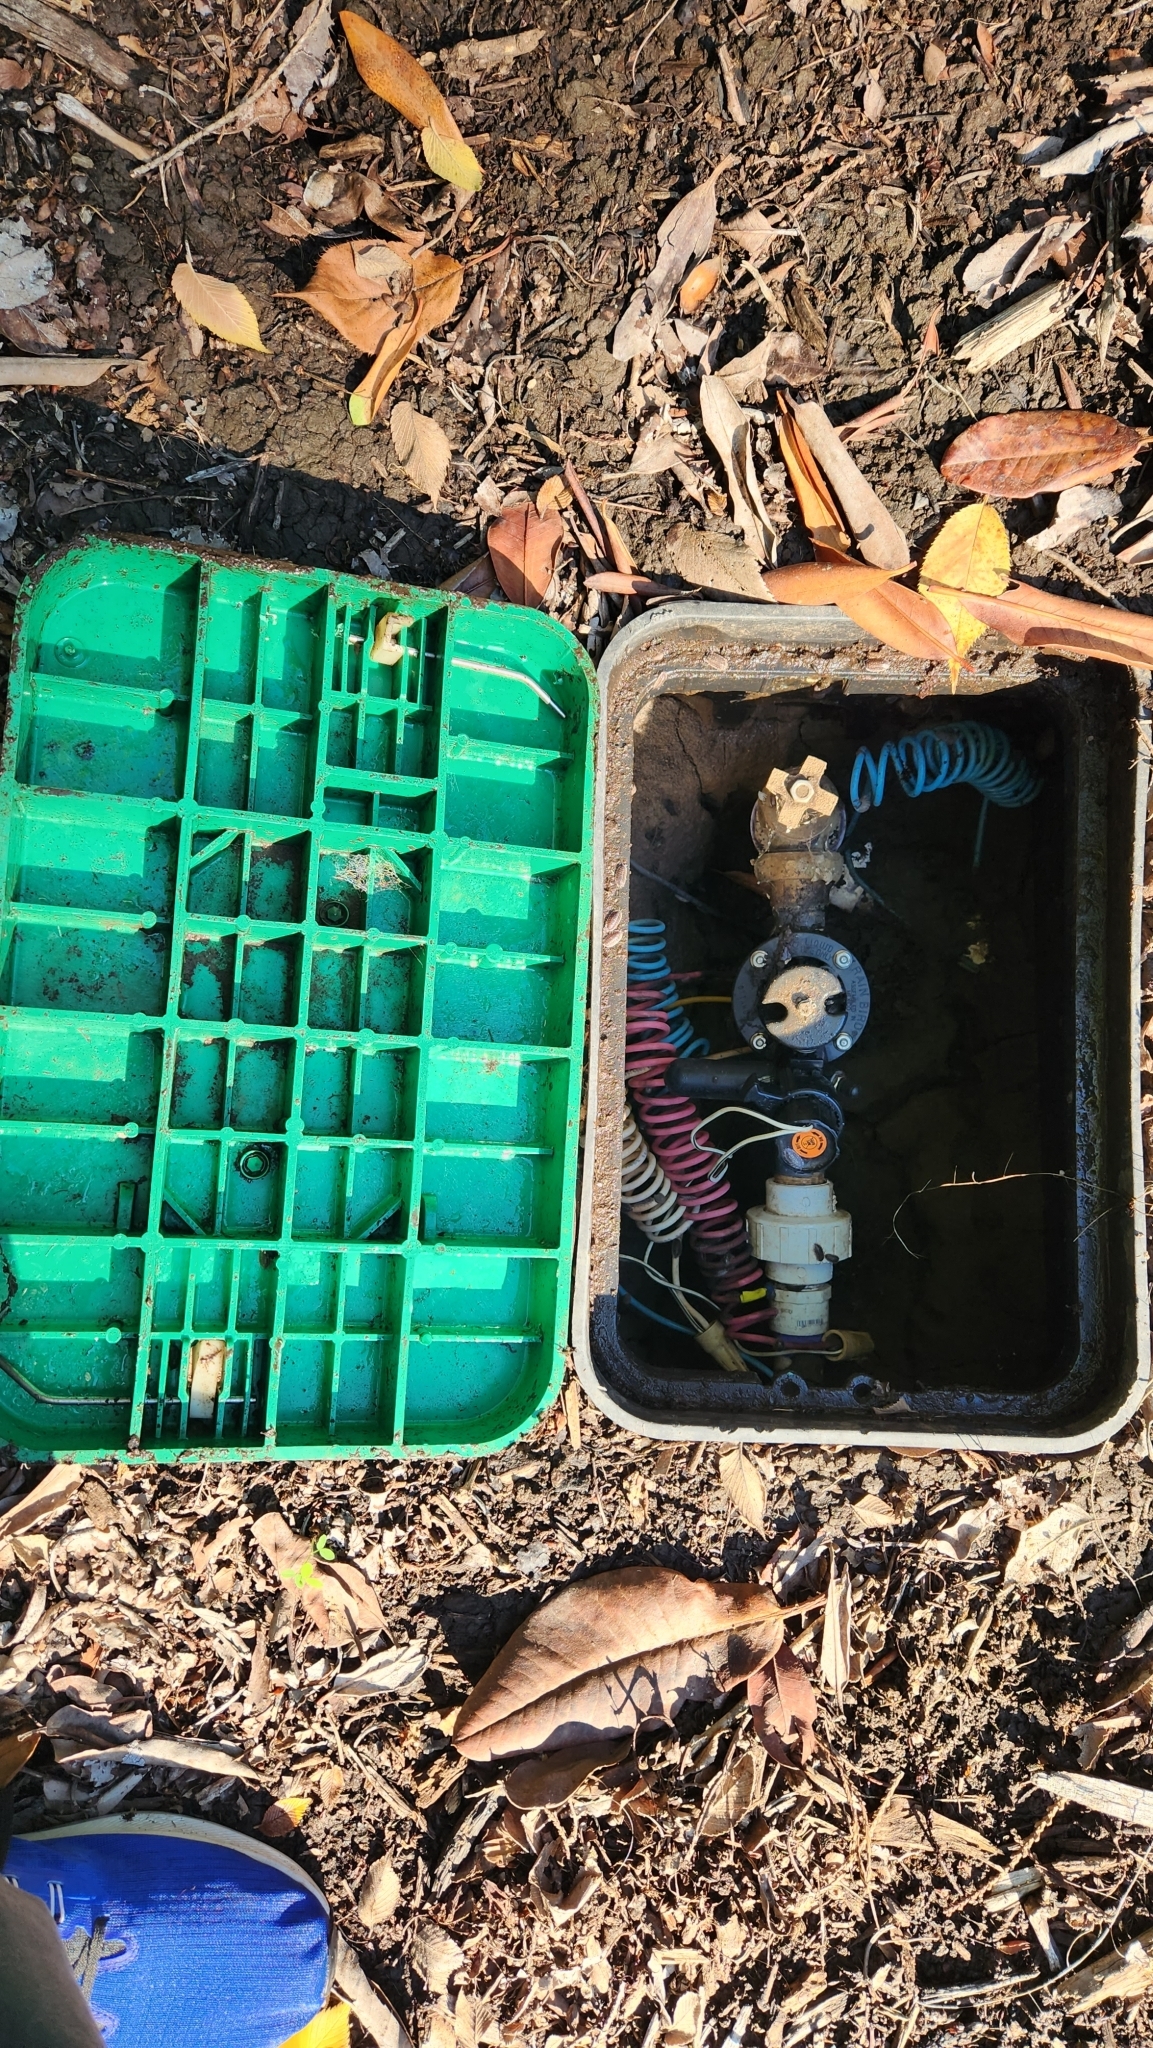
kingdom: Animalia
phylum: Mollusca
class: Gastropoda
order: Stylommatophora
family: Limacidae
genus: Limacus
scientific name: Limacus flavus
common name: Yellow gardenslug
